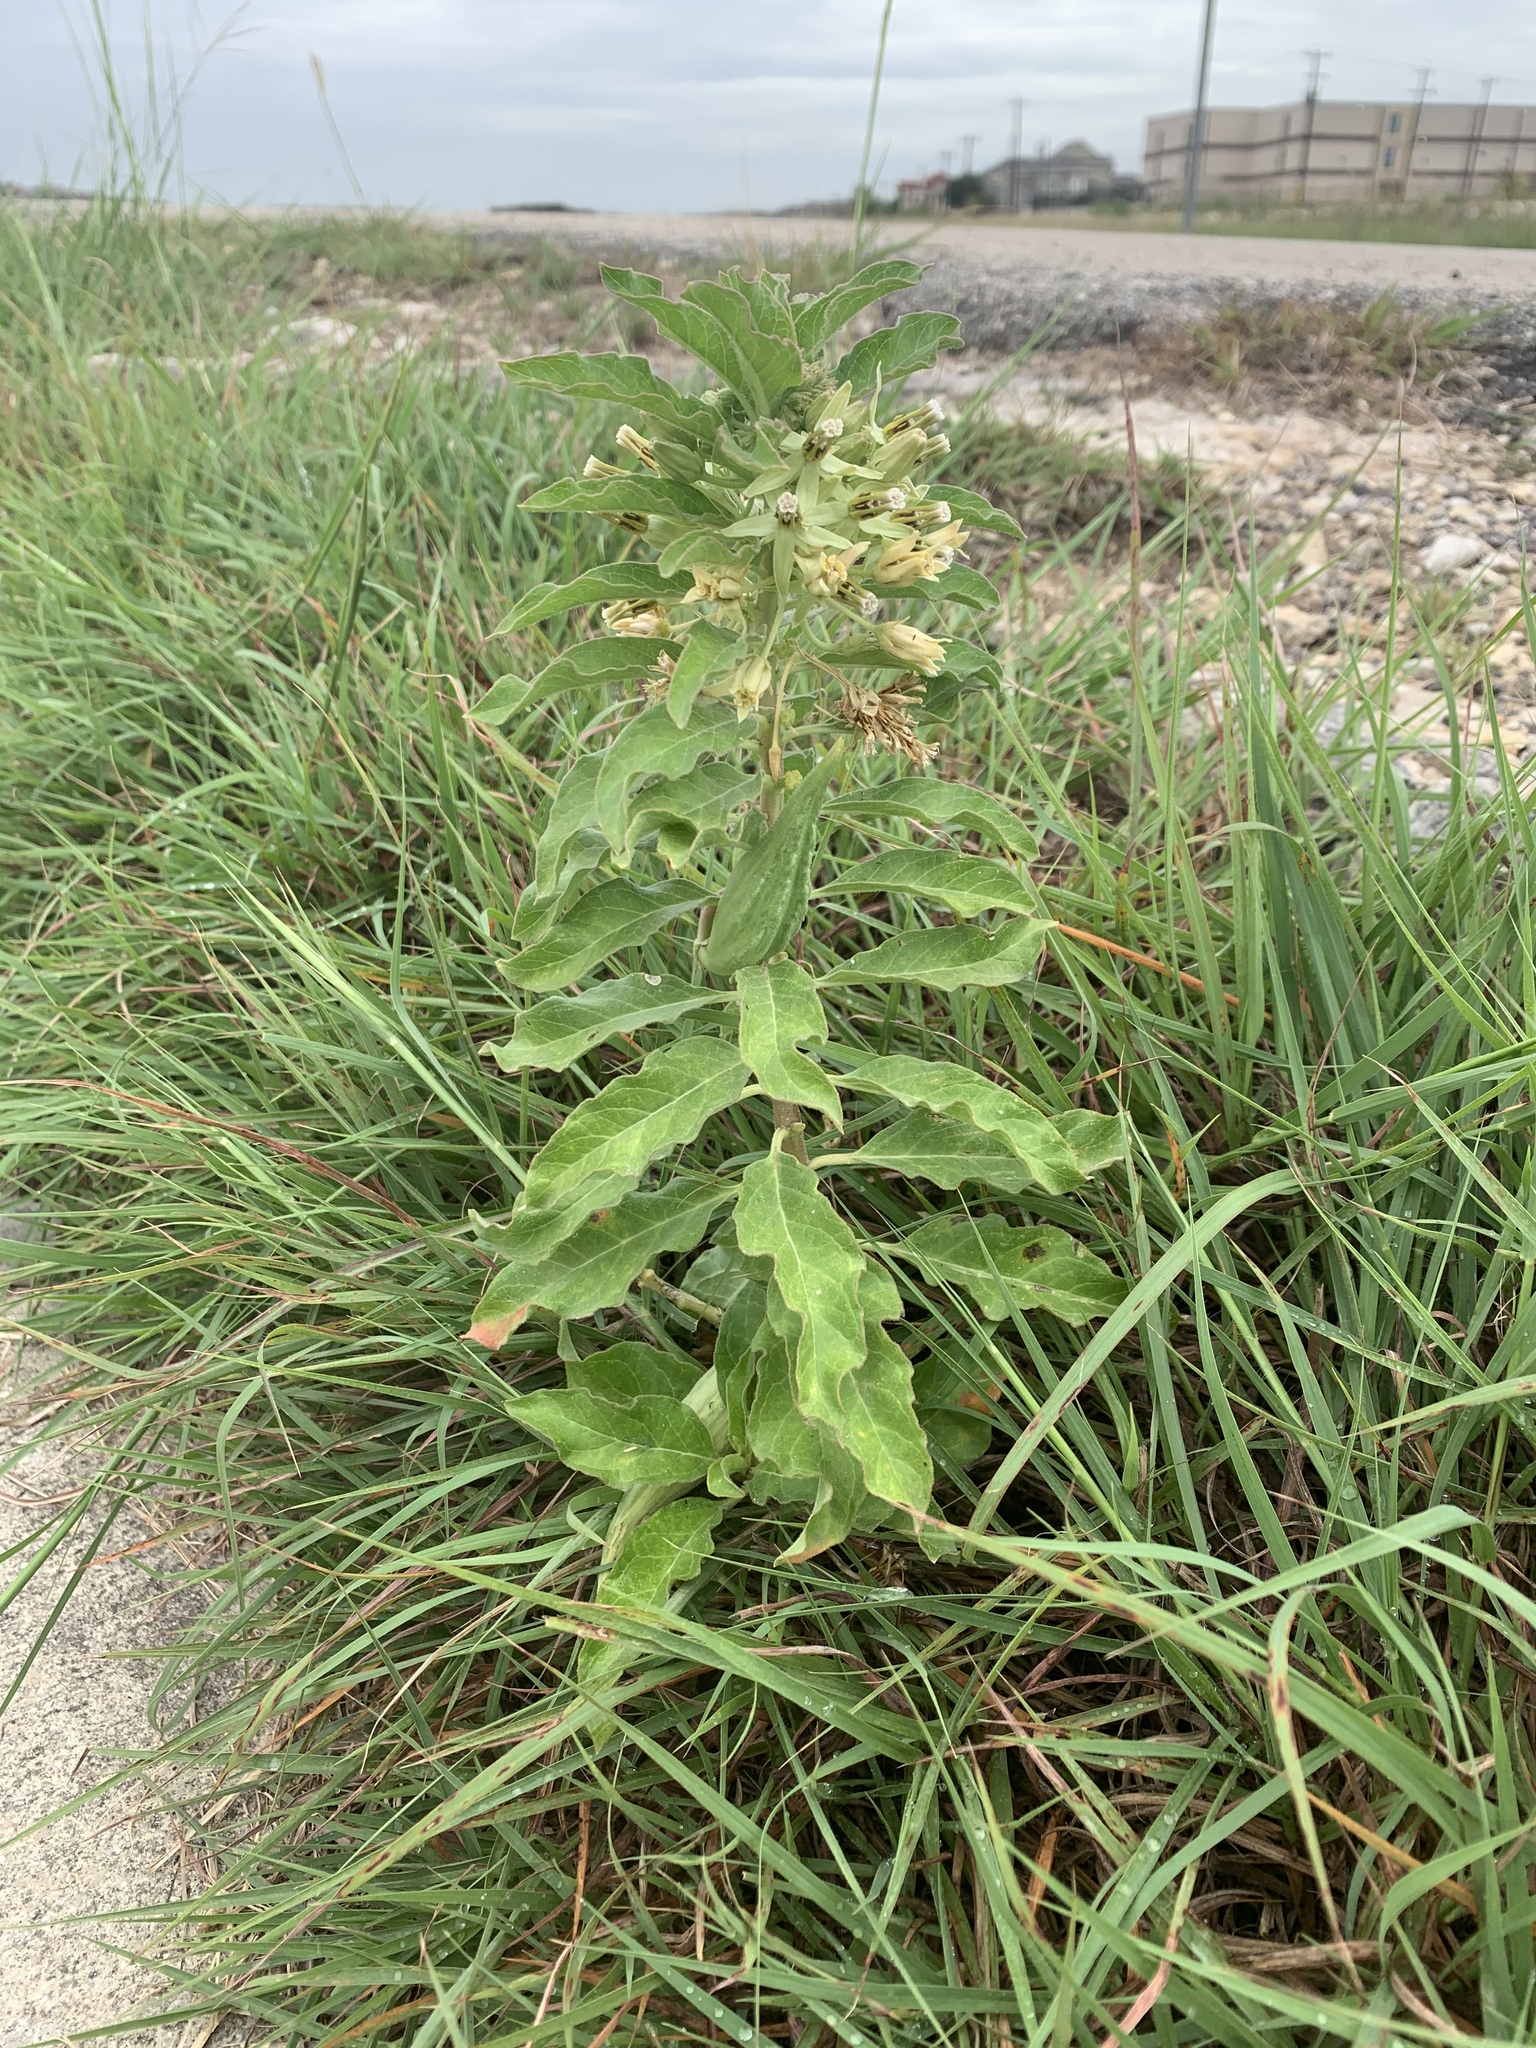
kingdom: Plantae
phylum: Tracheophyta
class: Magnoliopsida
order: Gentianales
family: Apocynaceae
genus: Asclepias
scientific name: Asclepias oenotheroides
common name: Zizotes milkweed
